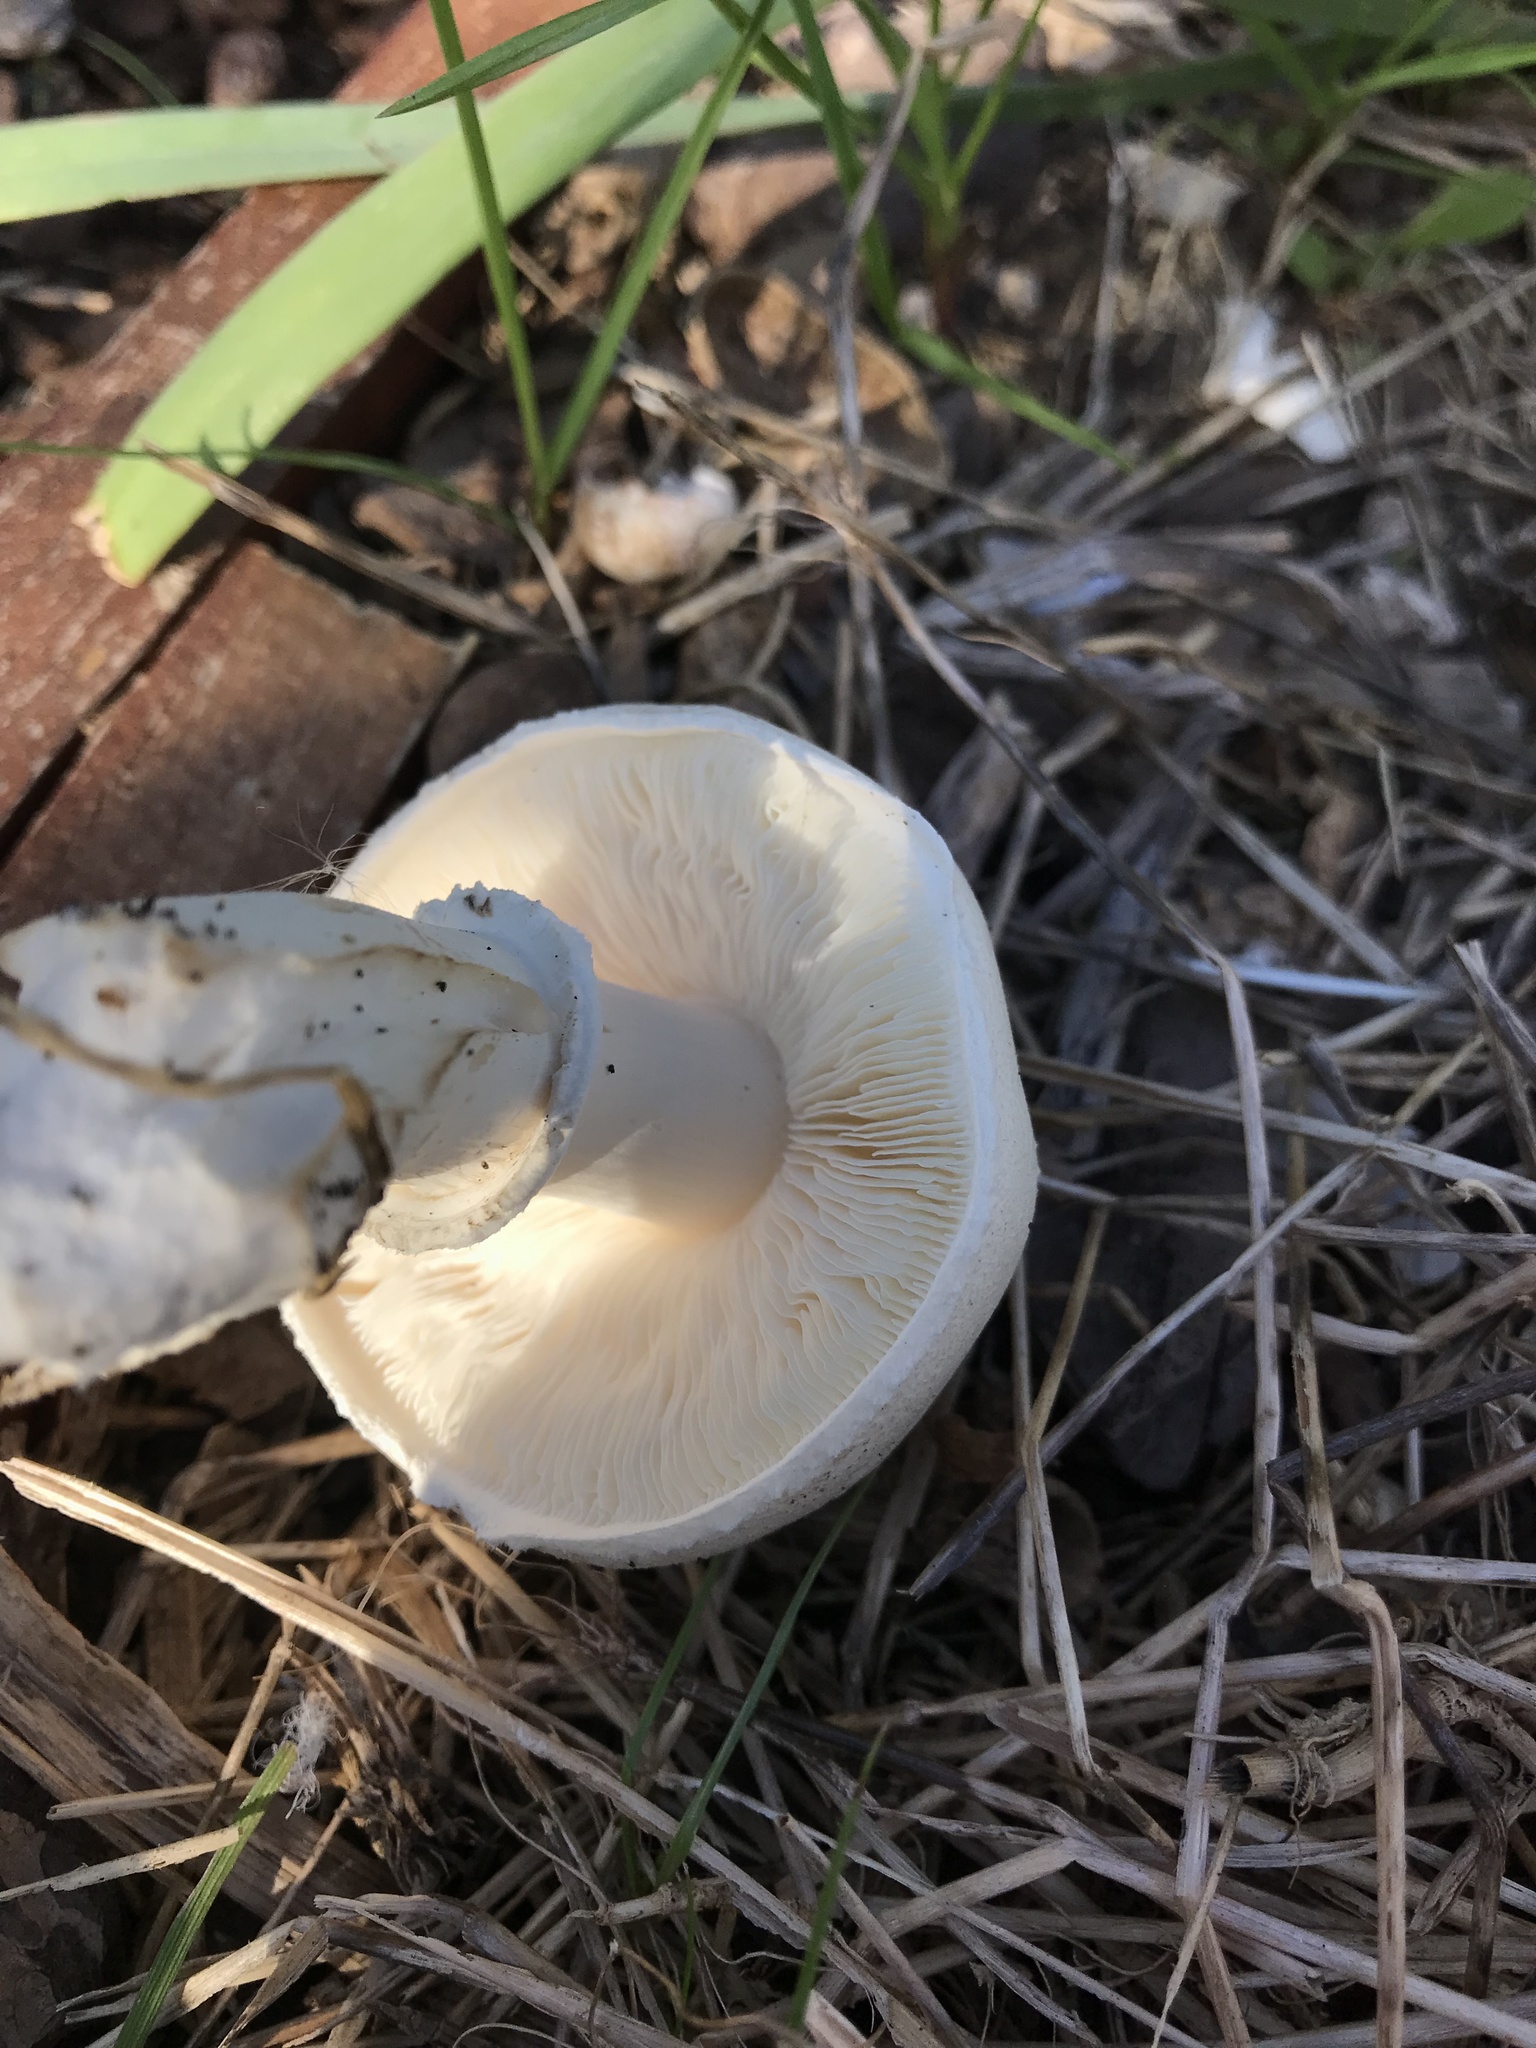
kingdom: Fungi
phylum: Basidiomycota
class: Agaricomycetes
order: Agaricales
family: Agaricaceae
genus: Leucoagaricus
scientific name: Leucoagaricus leucothites
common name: White dapperling
